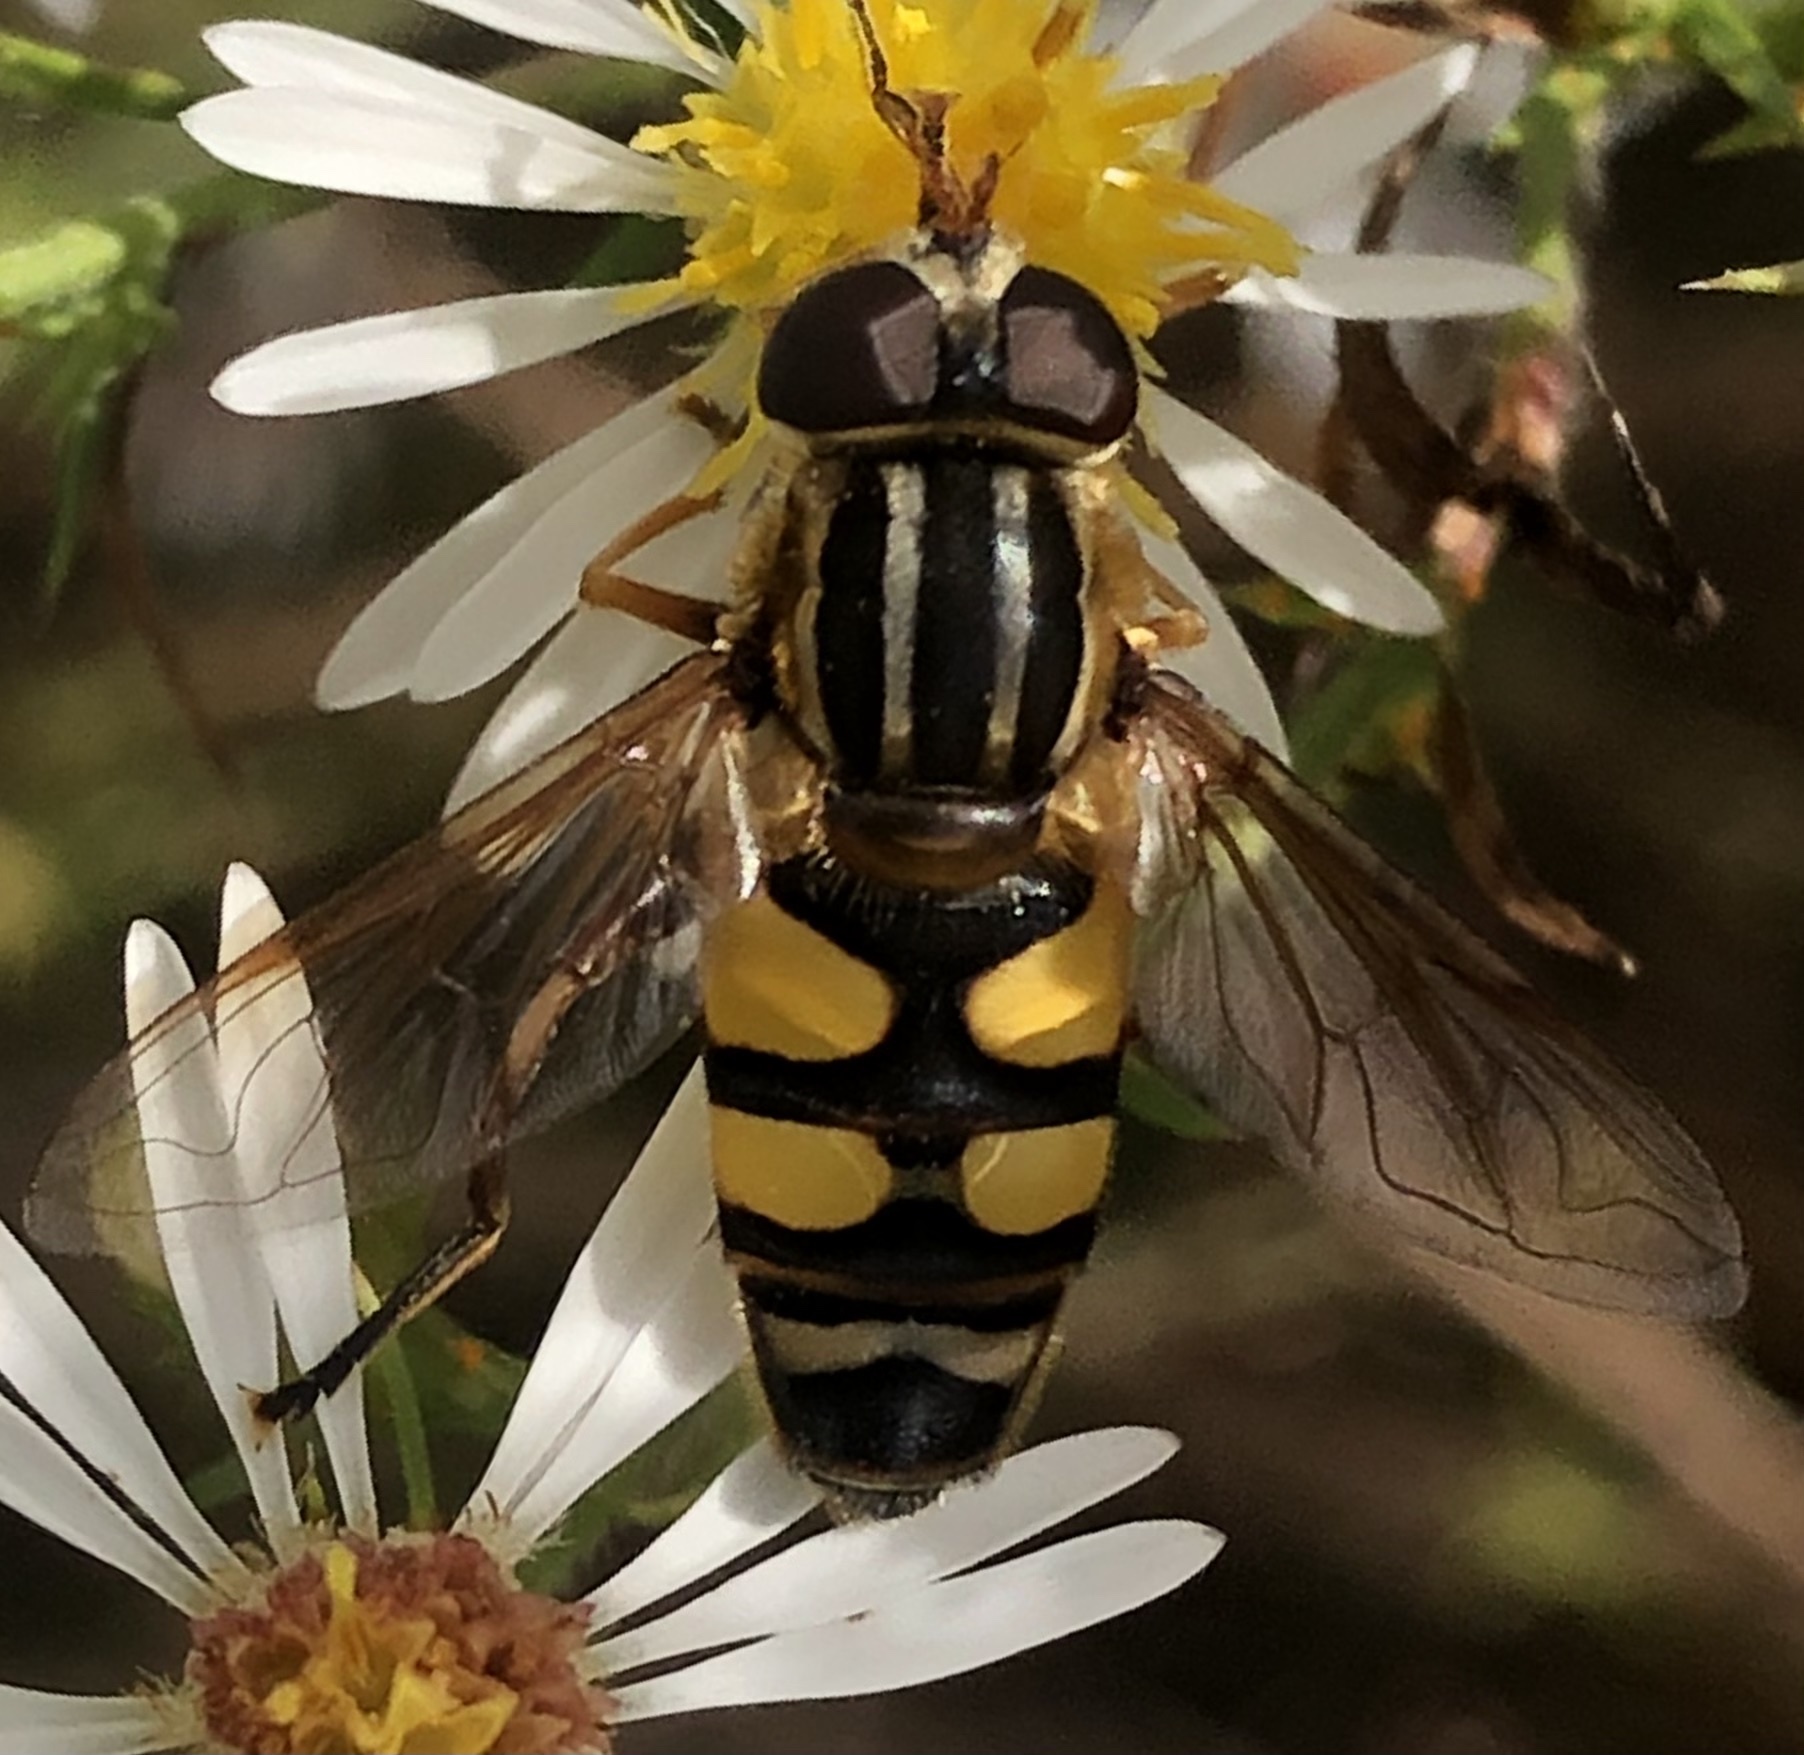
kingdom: Animalia
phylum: Arthropoda
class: Insecta
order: Diptera
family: Syrphidae
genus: Helophilus
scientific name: Helophilus fasciatus
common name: Narrow-headed marsh fly
